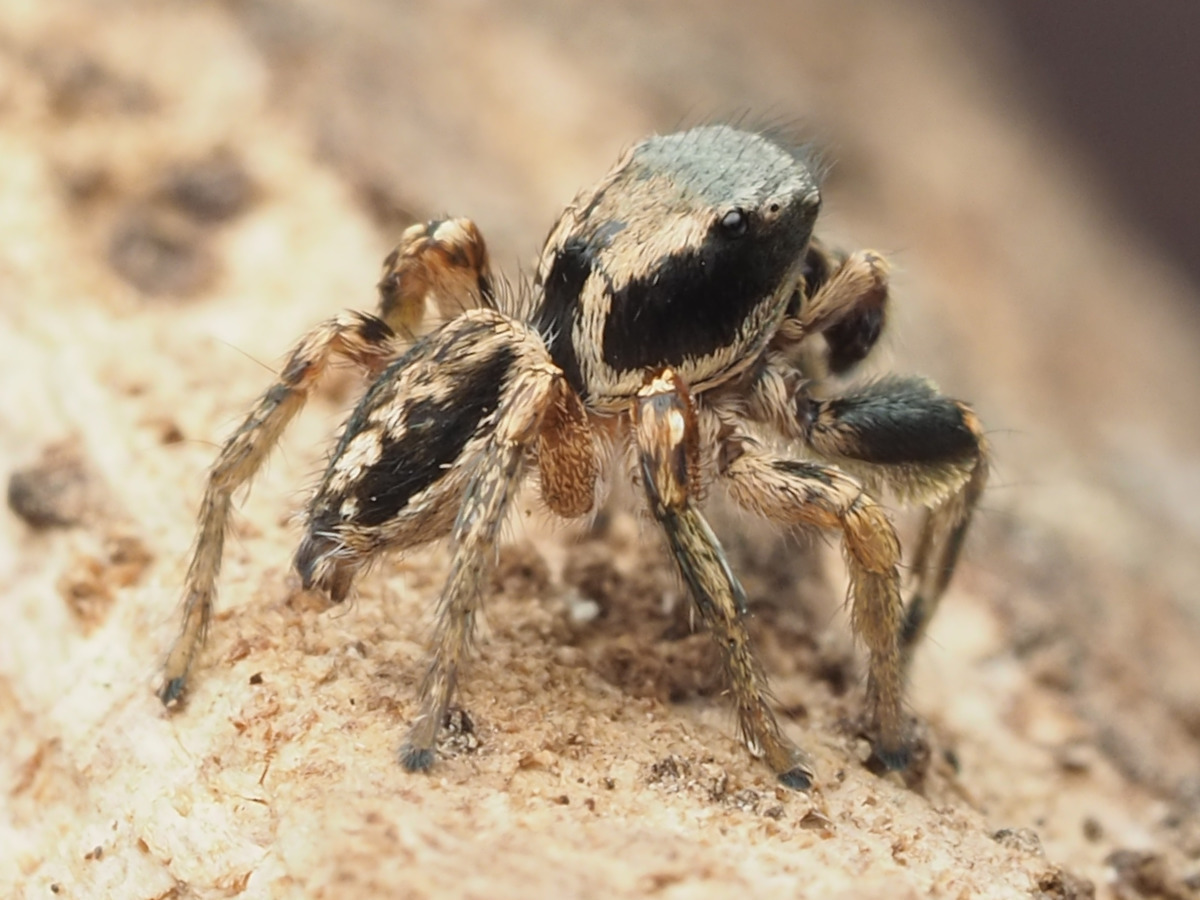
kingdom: Animalia
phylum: Arthropoda
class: Arachnida
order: Araneae
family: Salticidae
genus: Habronattus
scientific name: Habronattus mexicanus
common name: Jumping spiders
